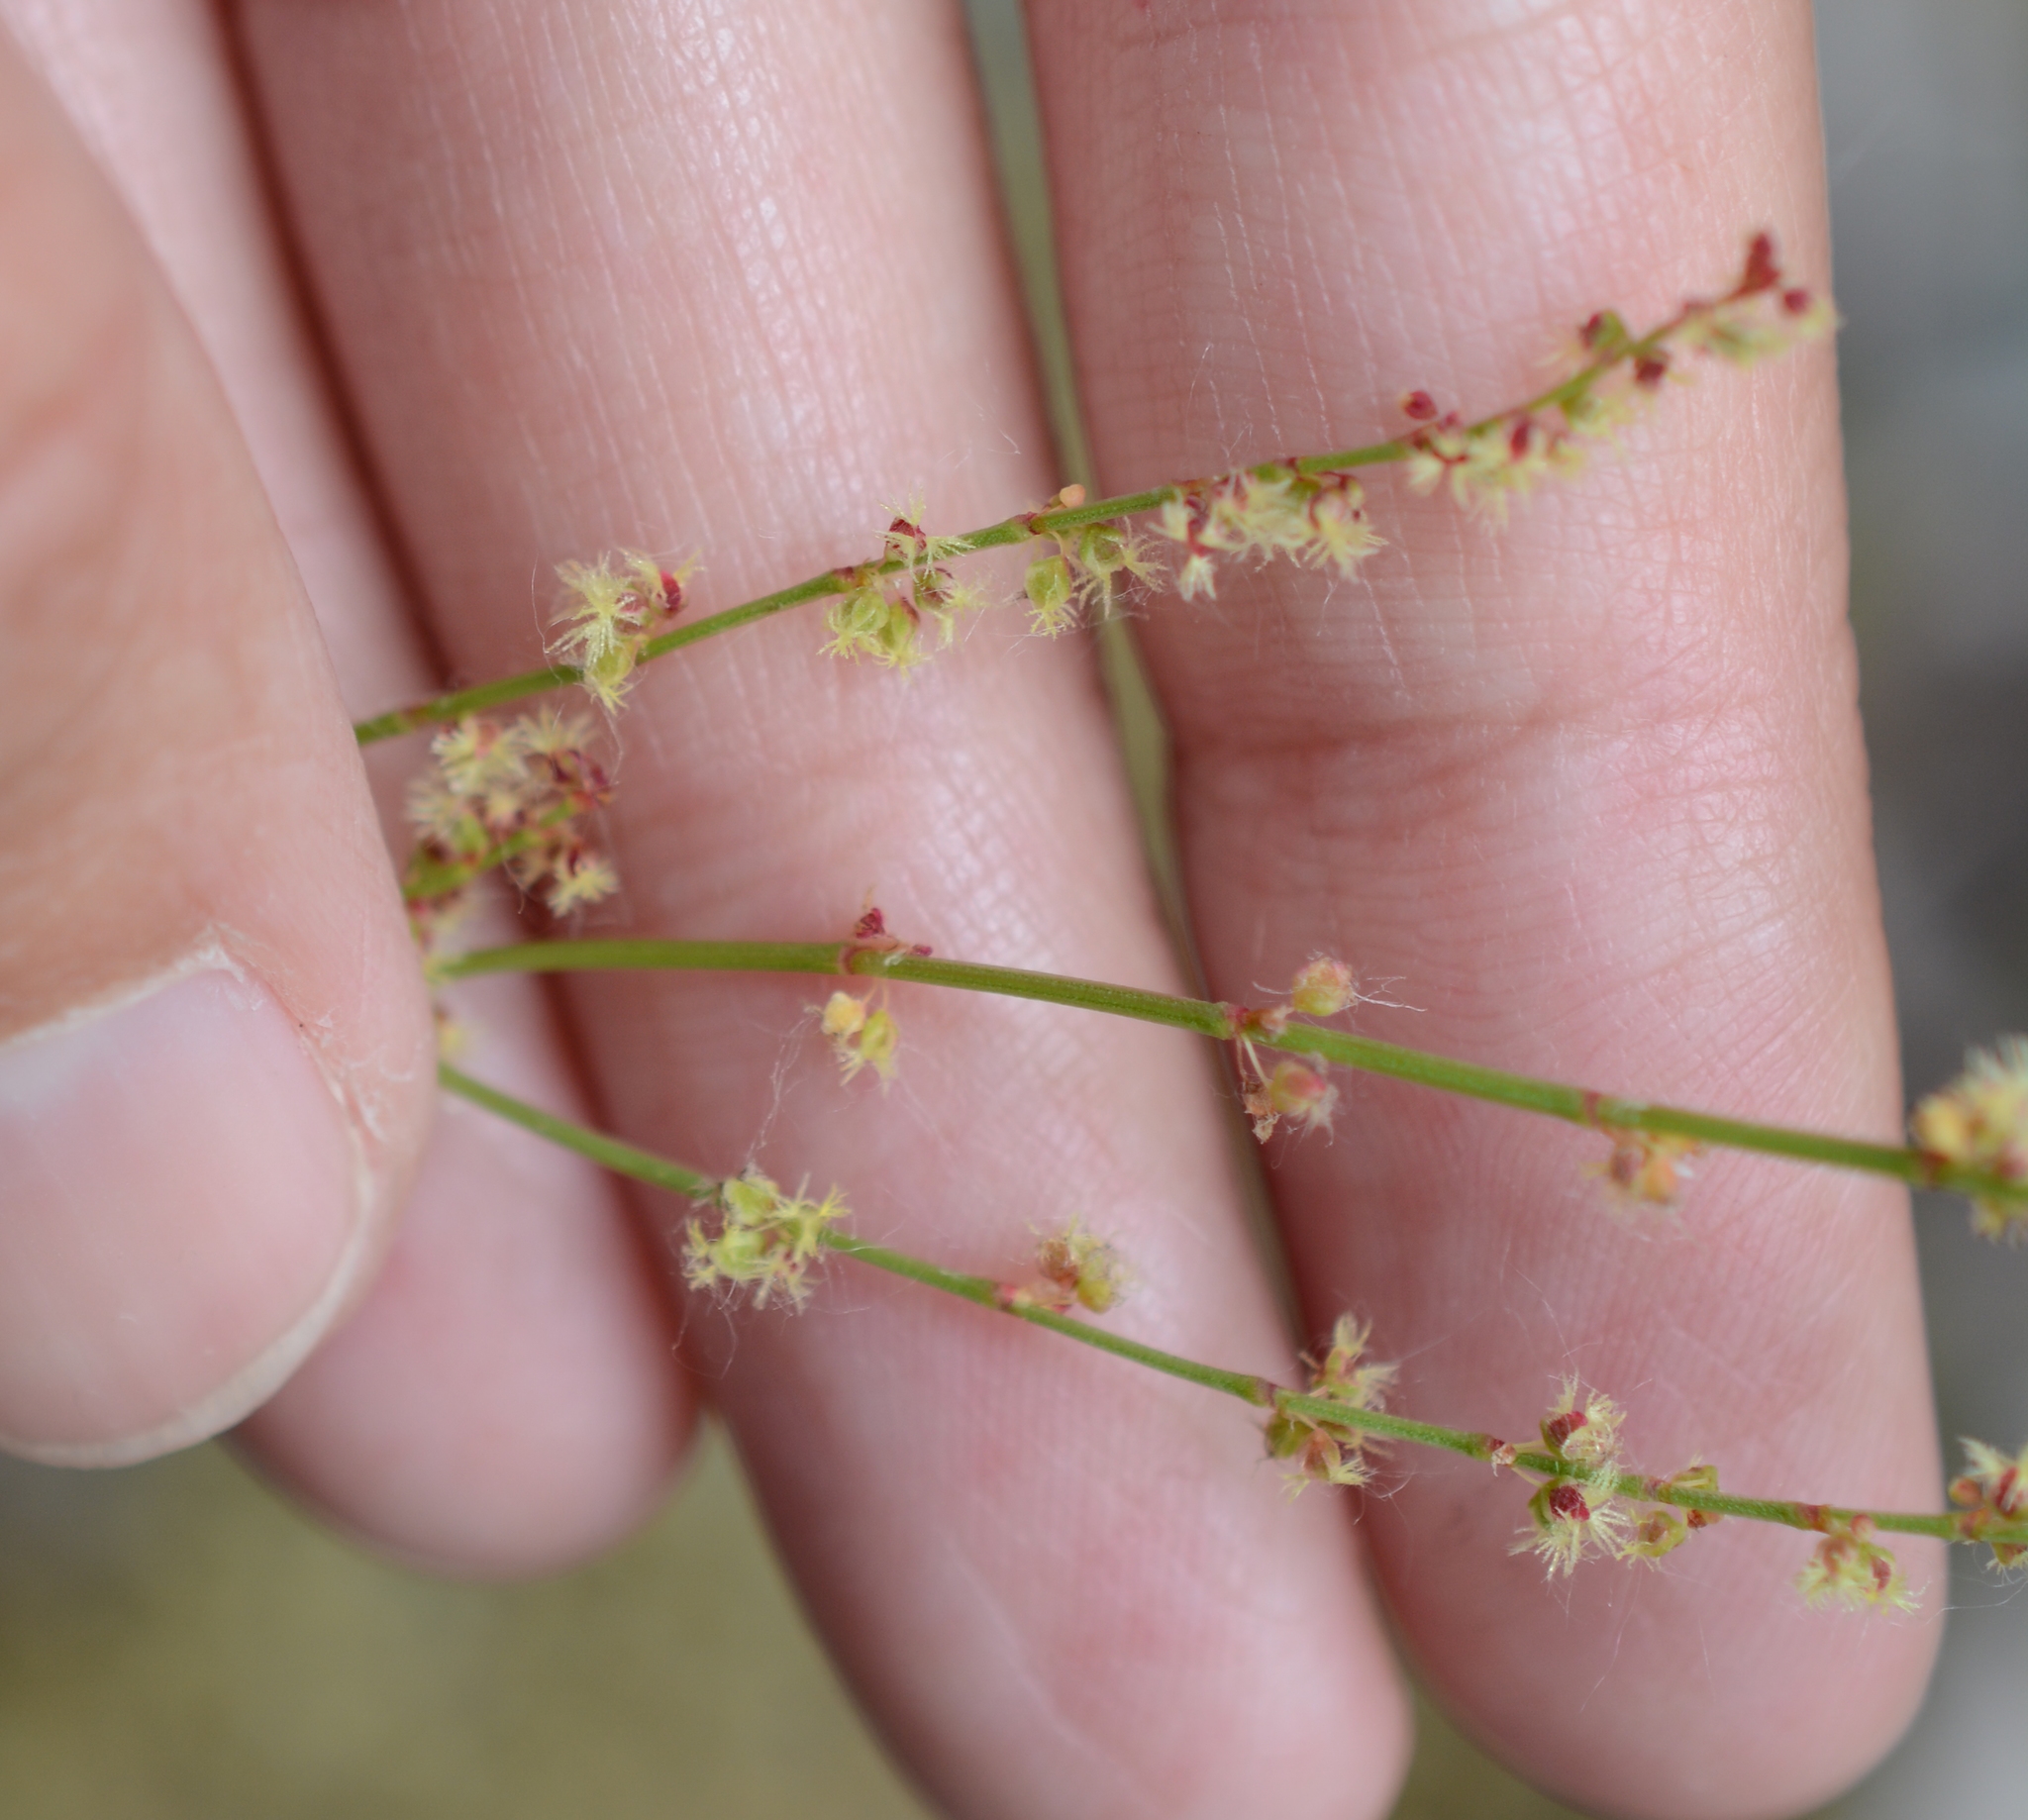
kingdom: Plantae
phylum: Tracheophyta
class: Magnoliopsida
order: Caryophyllales
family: Polygonaceae
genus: Rumex
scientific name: Rumex acetosella
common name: Common sheep sorrel
